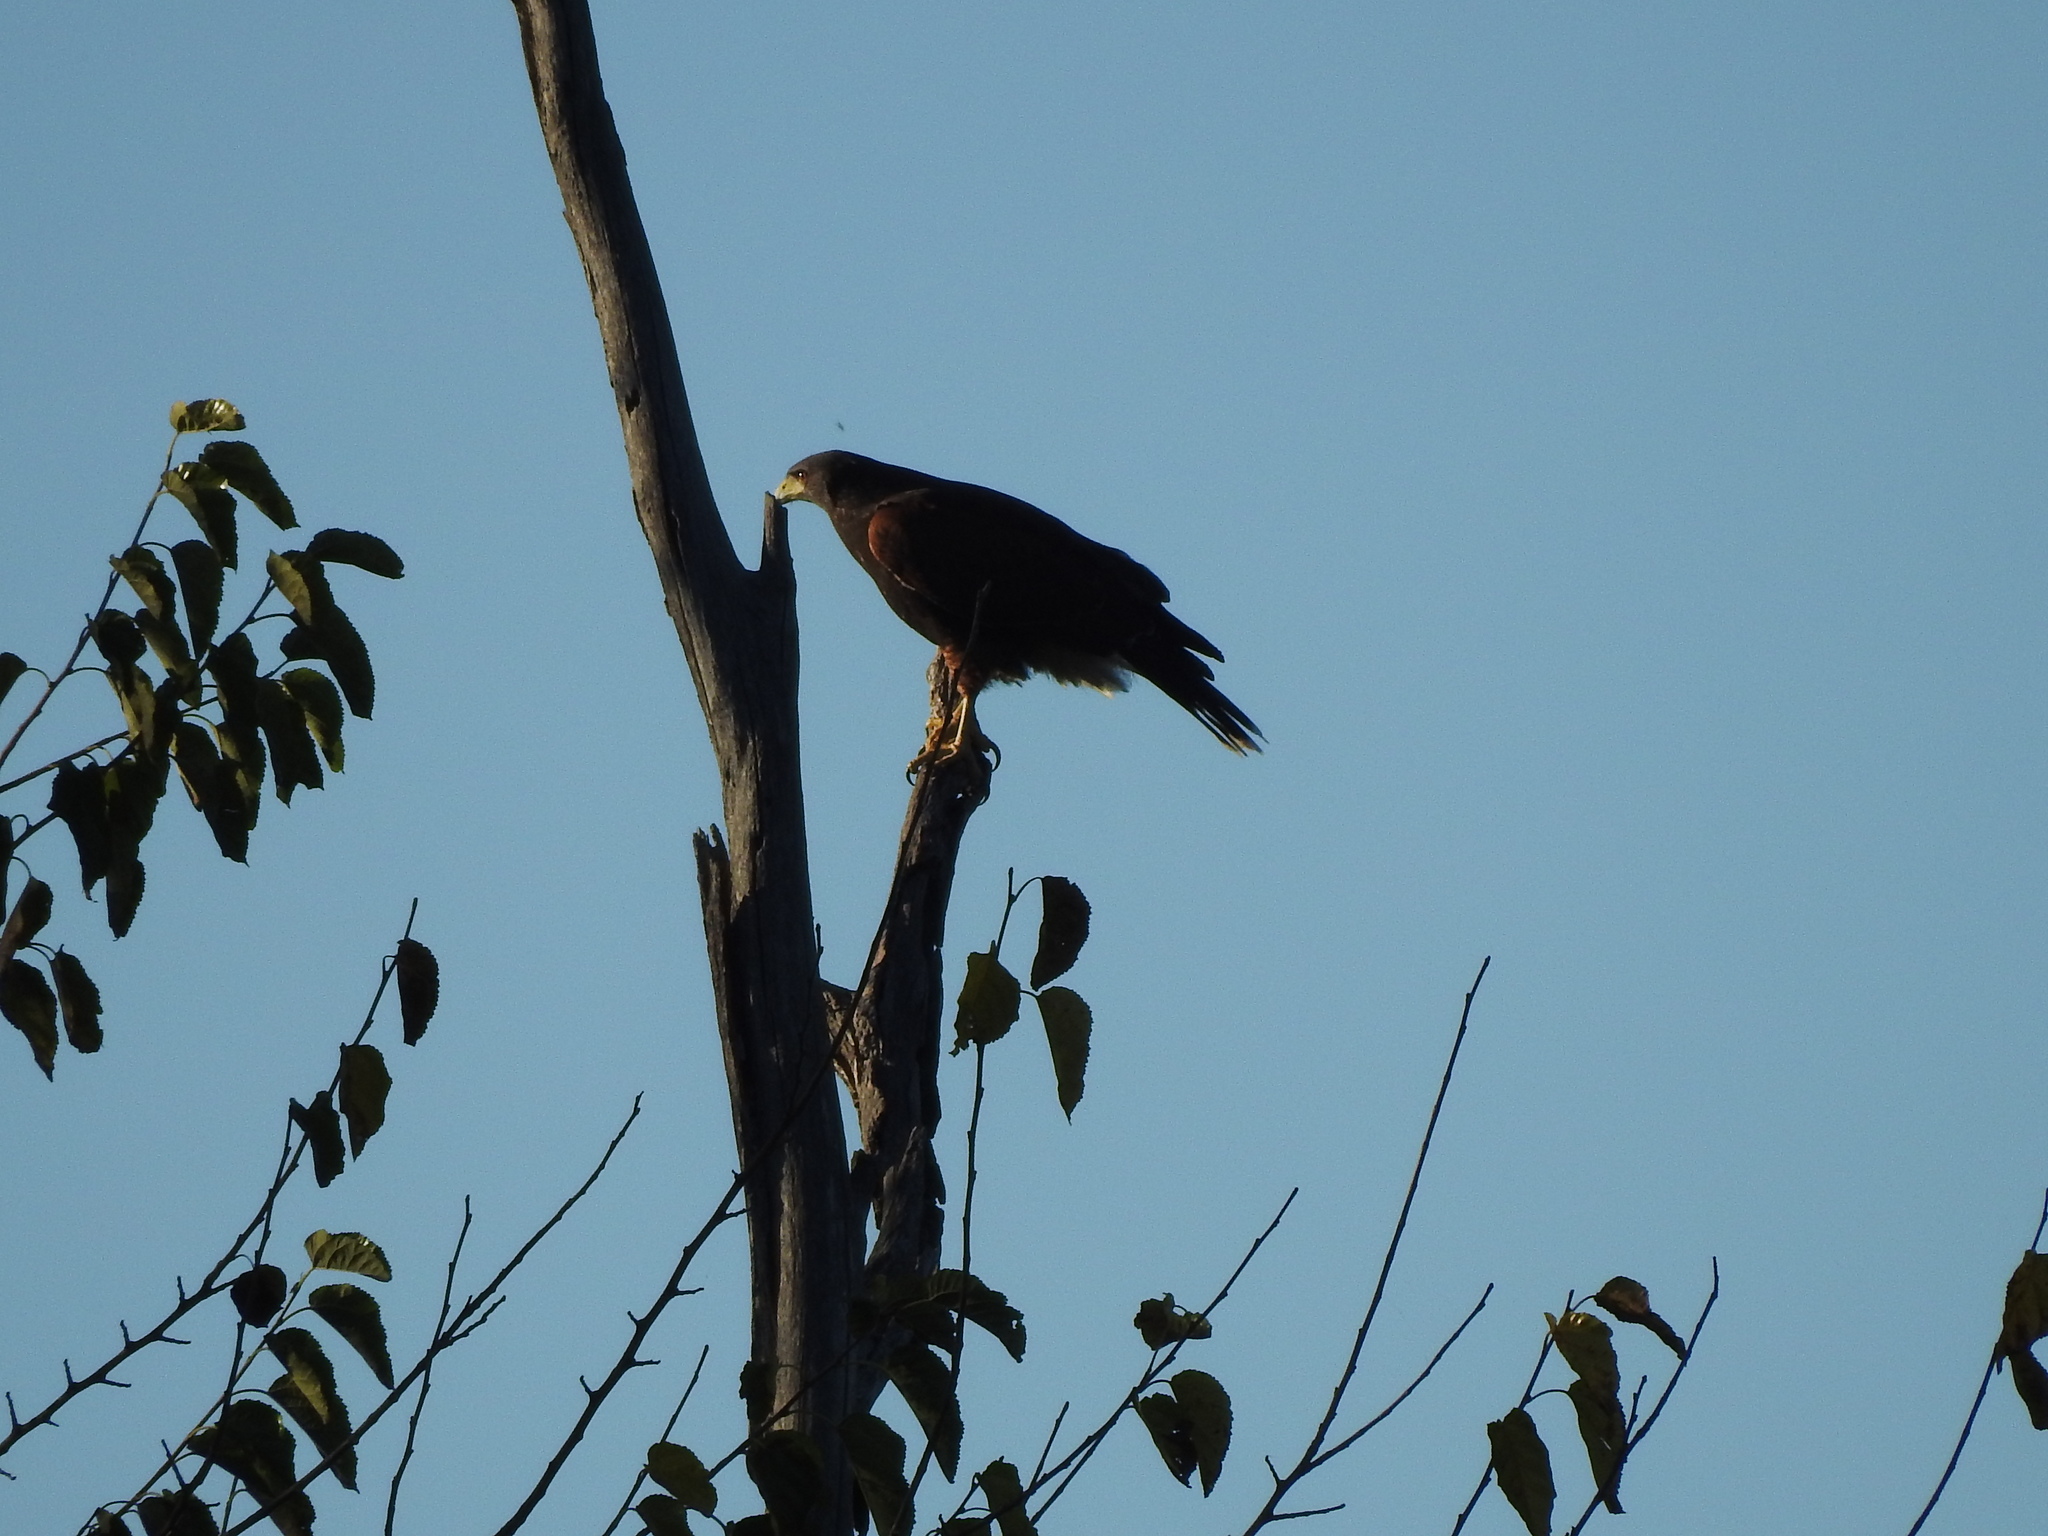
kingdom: Animalia
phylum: Chordata
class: Aves
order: Accipitriformes
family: Accipitridae
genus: Parabuteo
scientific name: Parabuteo unicinctus
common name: Harris's hawk
